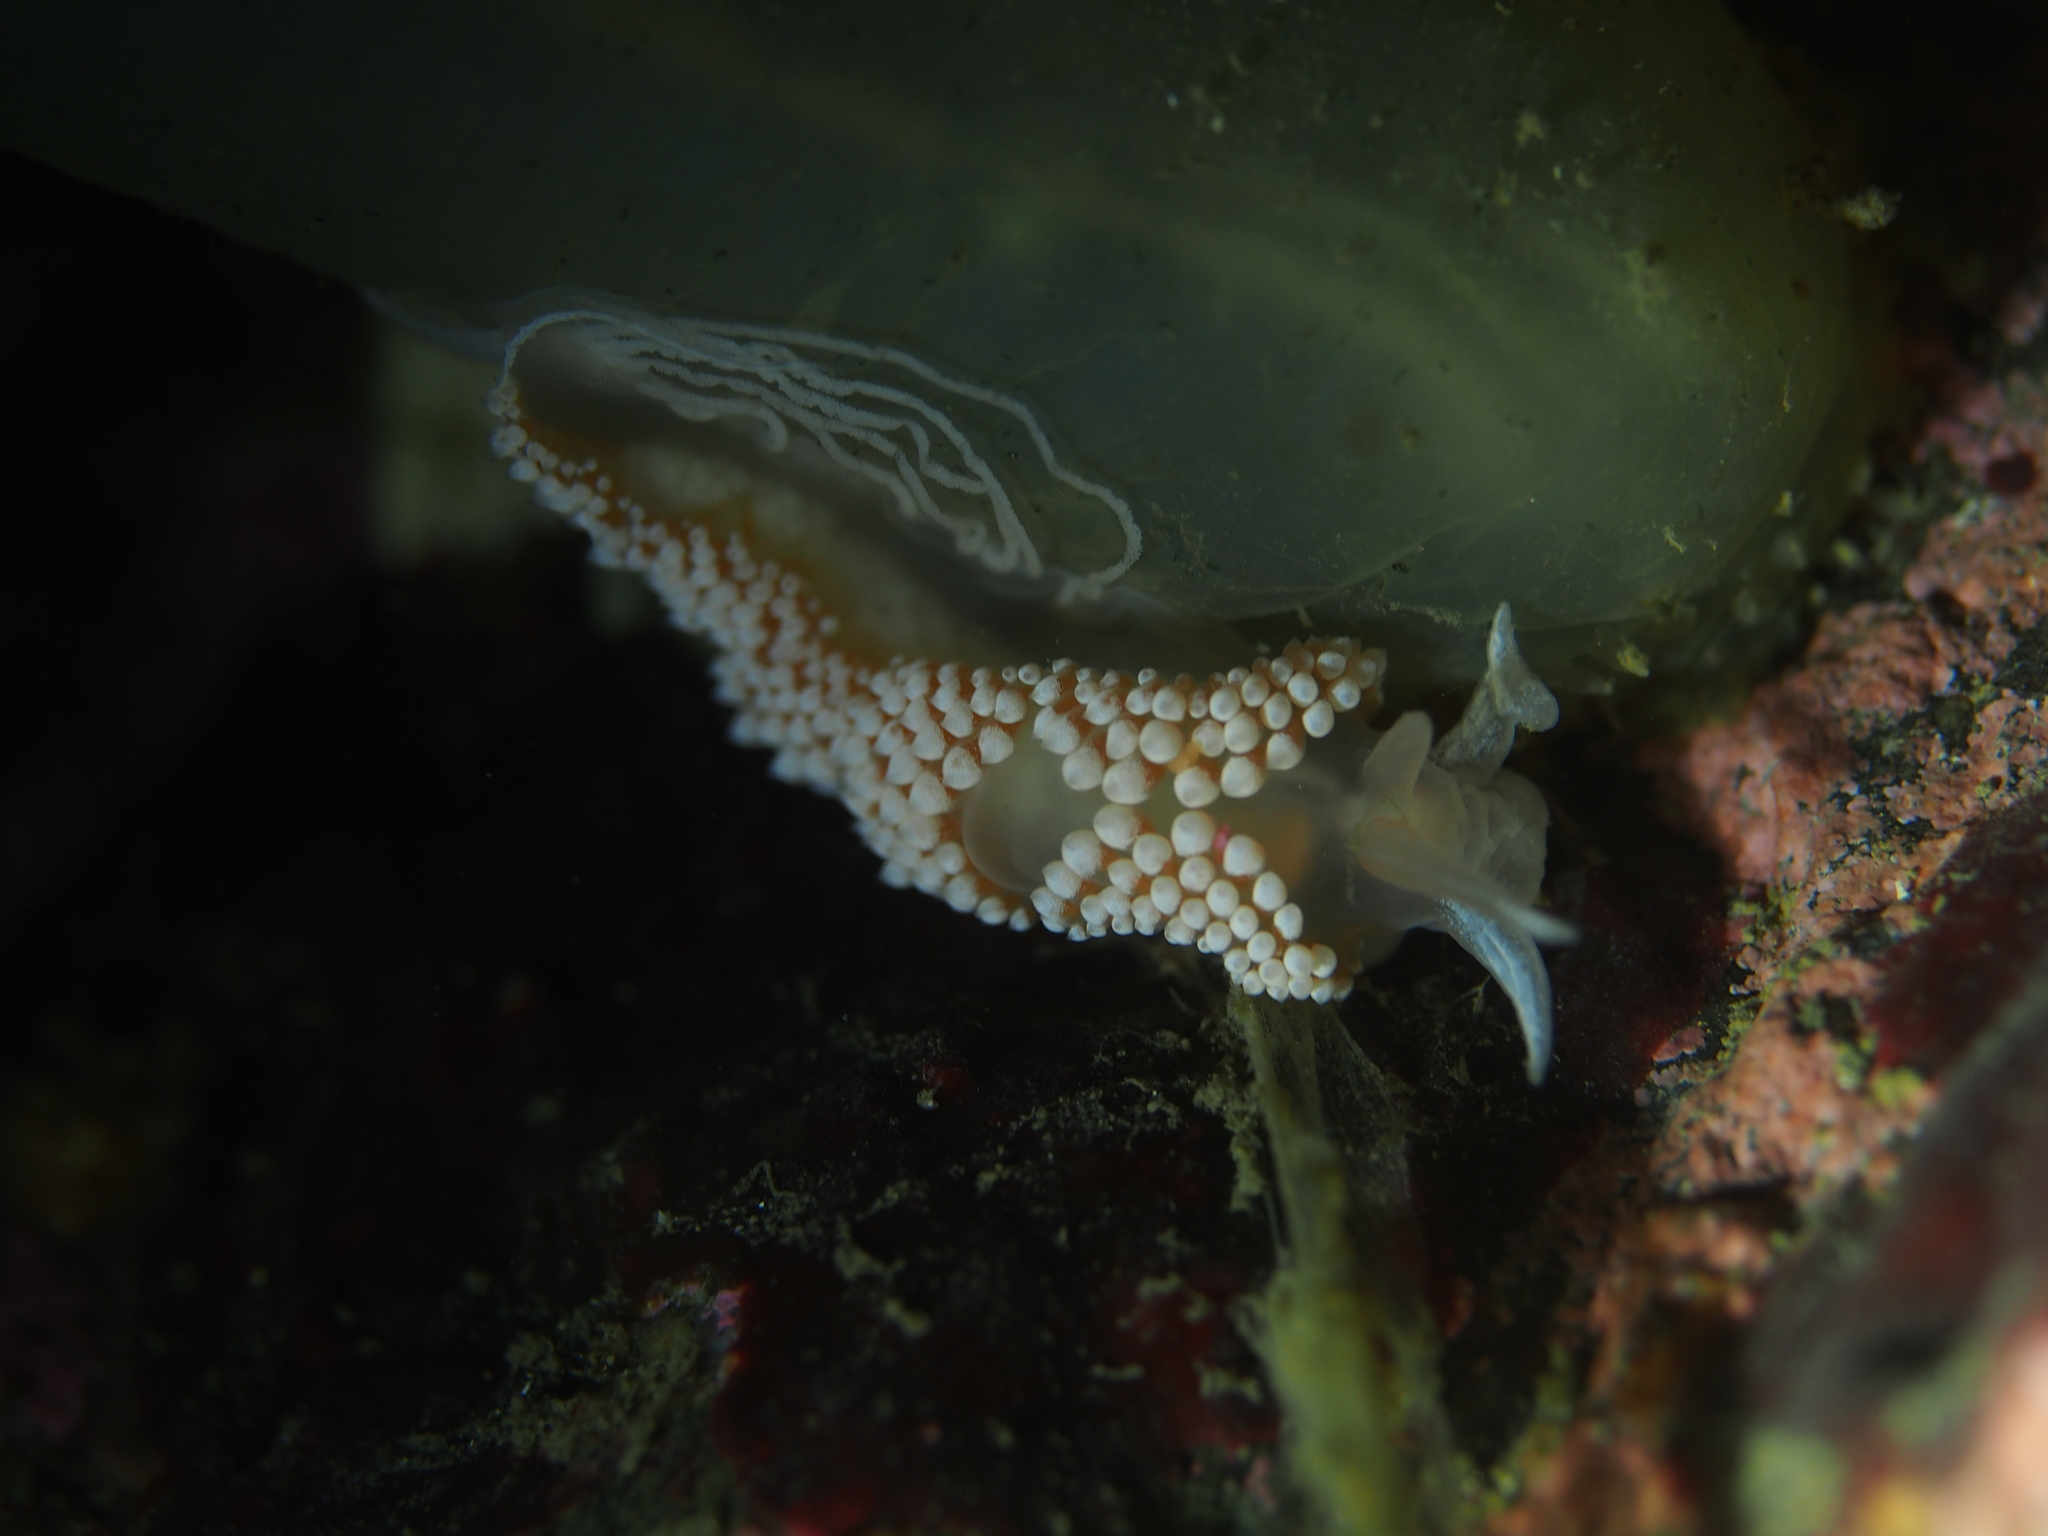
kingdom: Animalia
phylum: Mollusca
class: Gastropoda
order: Nudibranchia
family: Coryphellidae
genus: Coryphella
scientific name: Coryphella verrucosa
